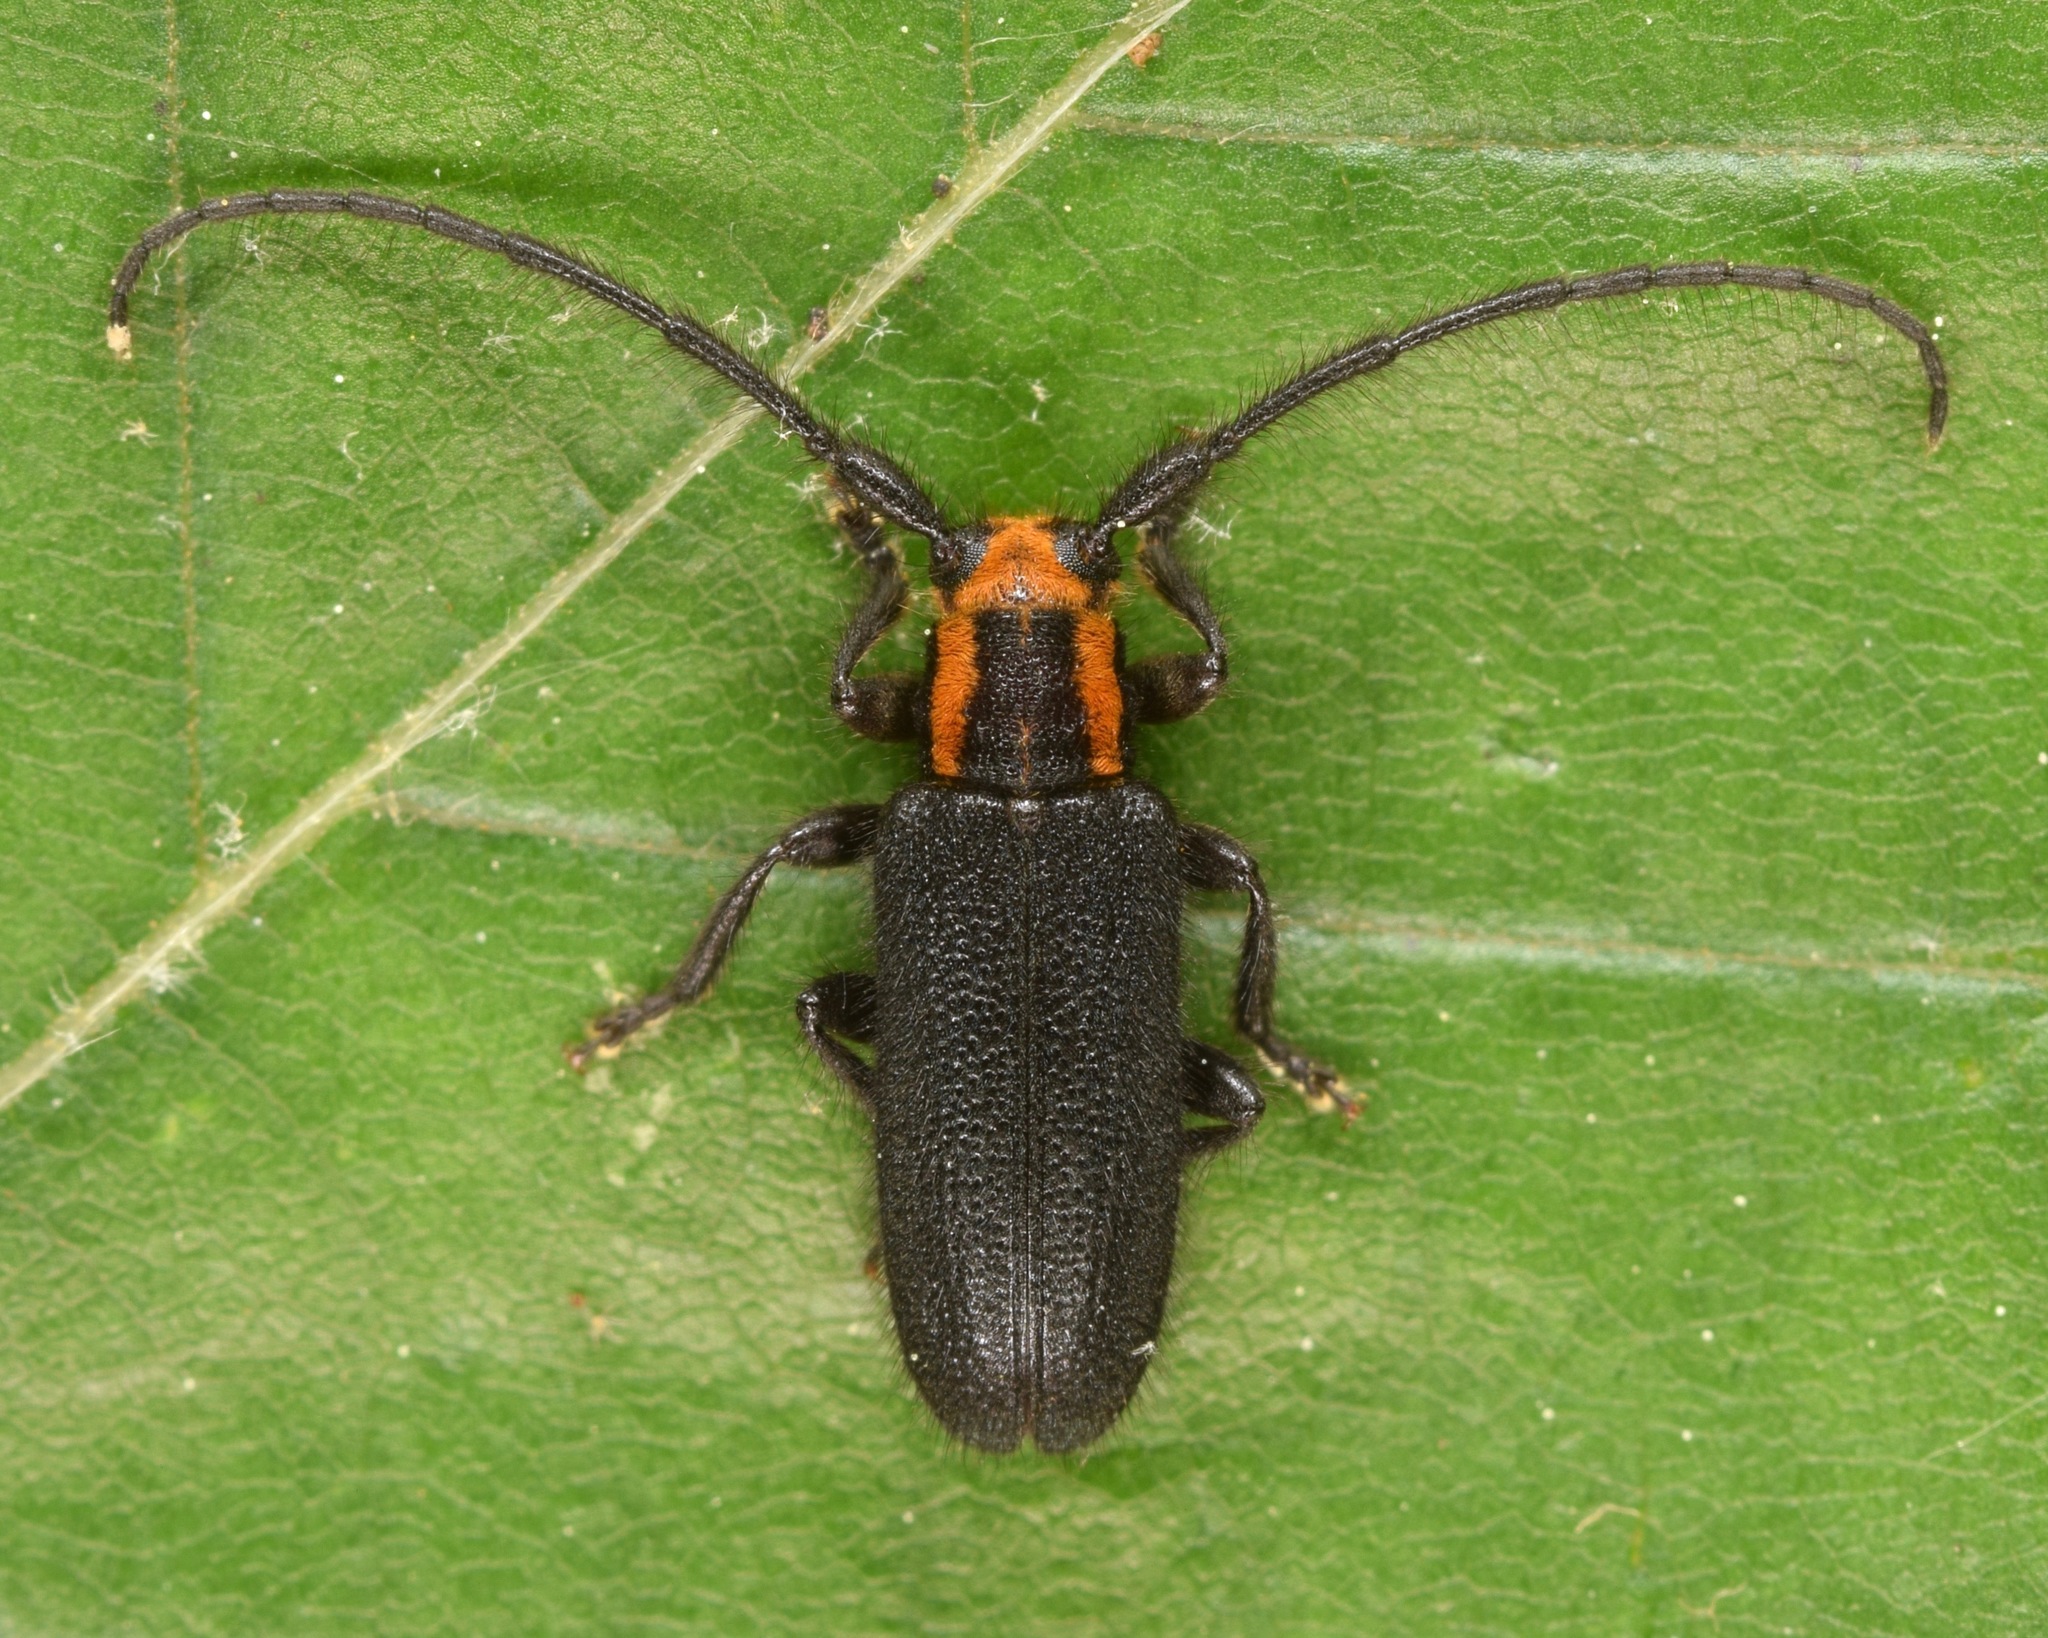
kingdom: Animalia
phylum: Arthropoda
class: Insecta
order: Coleoptera
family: Cerambycidae
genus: Eupogonius
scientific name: Eupogonius subarmatus
